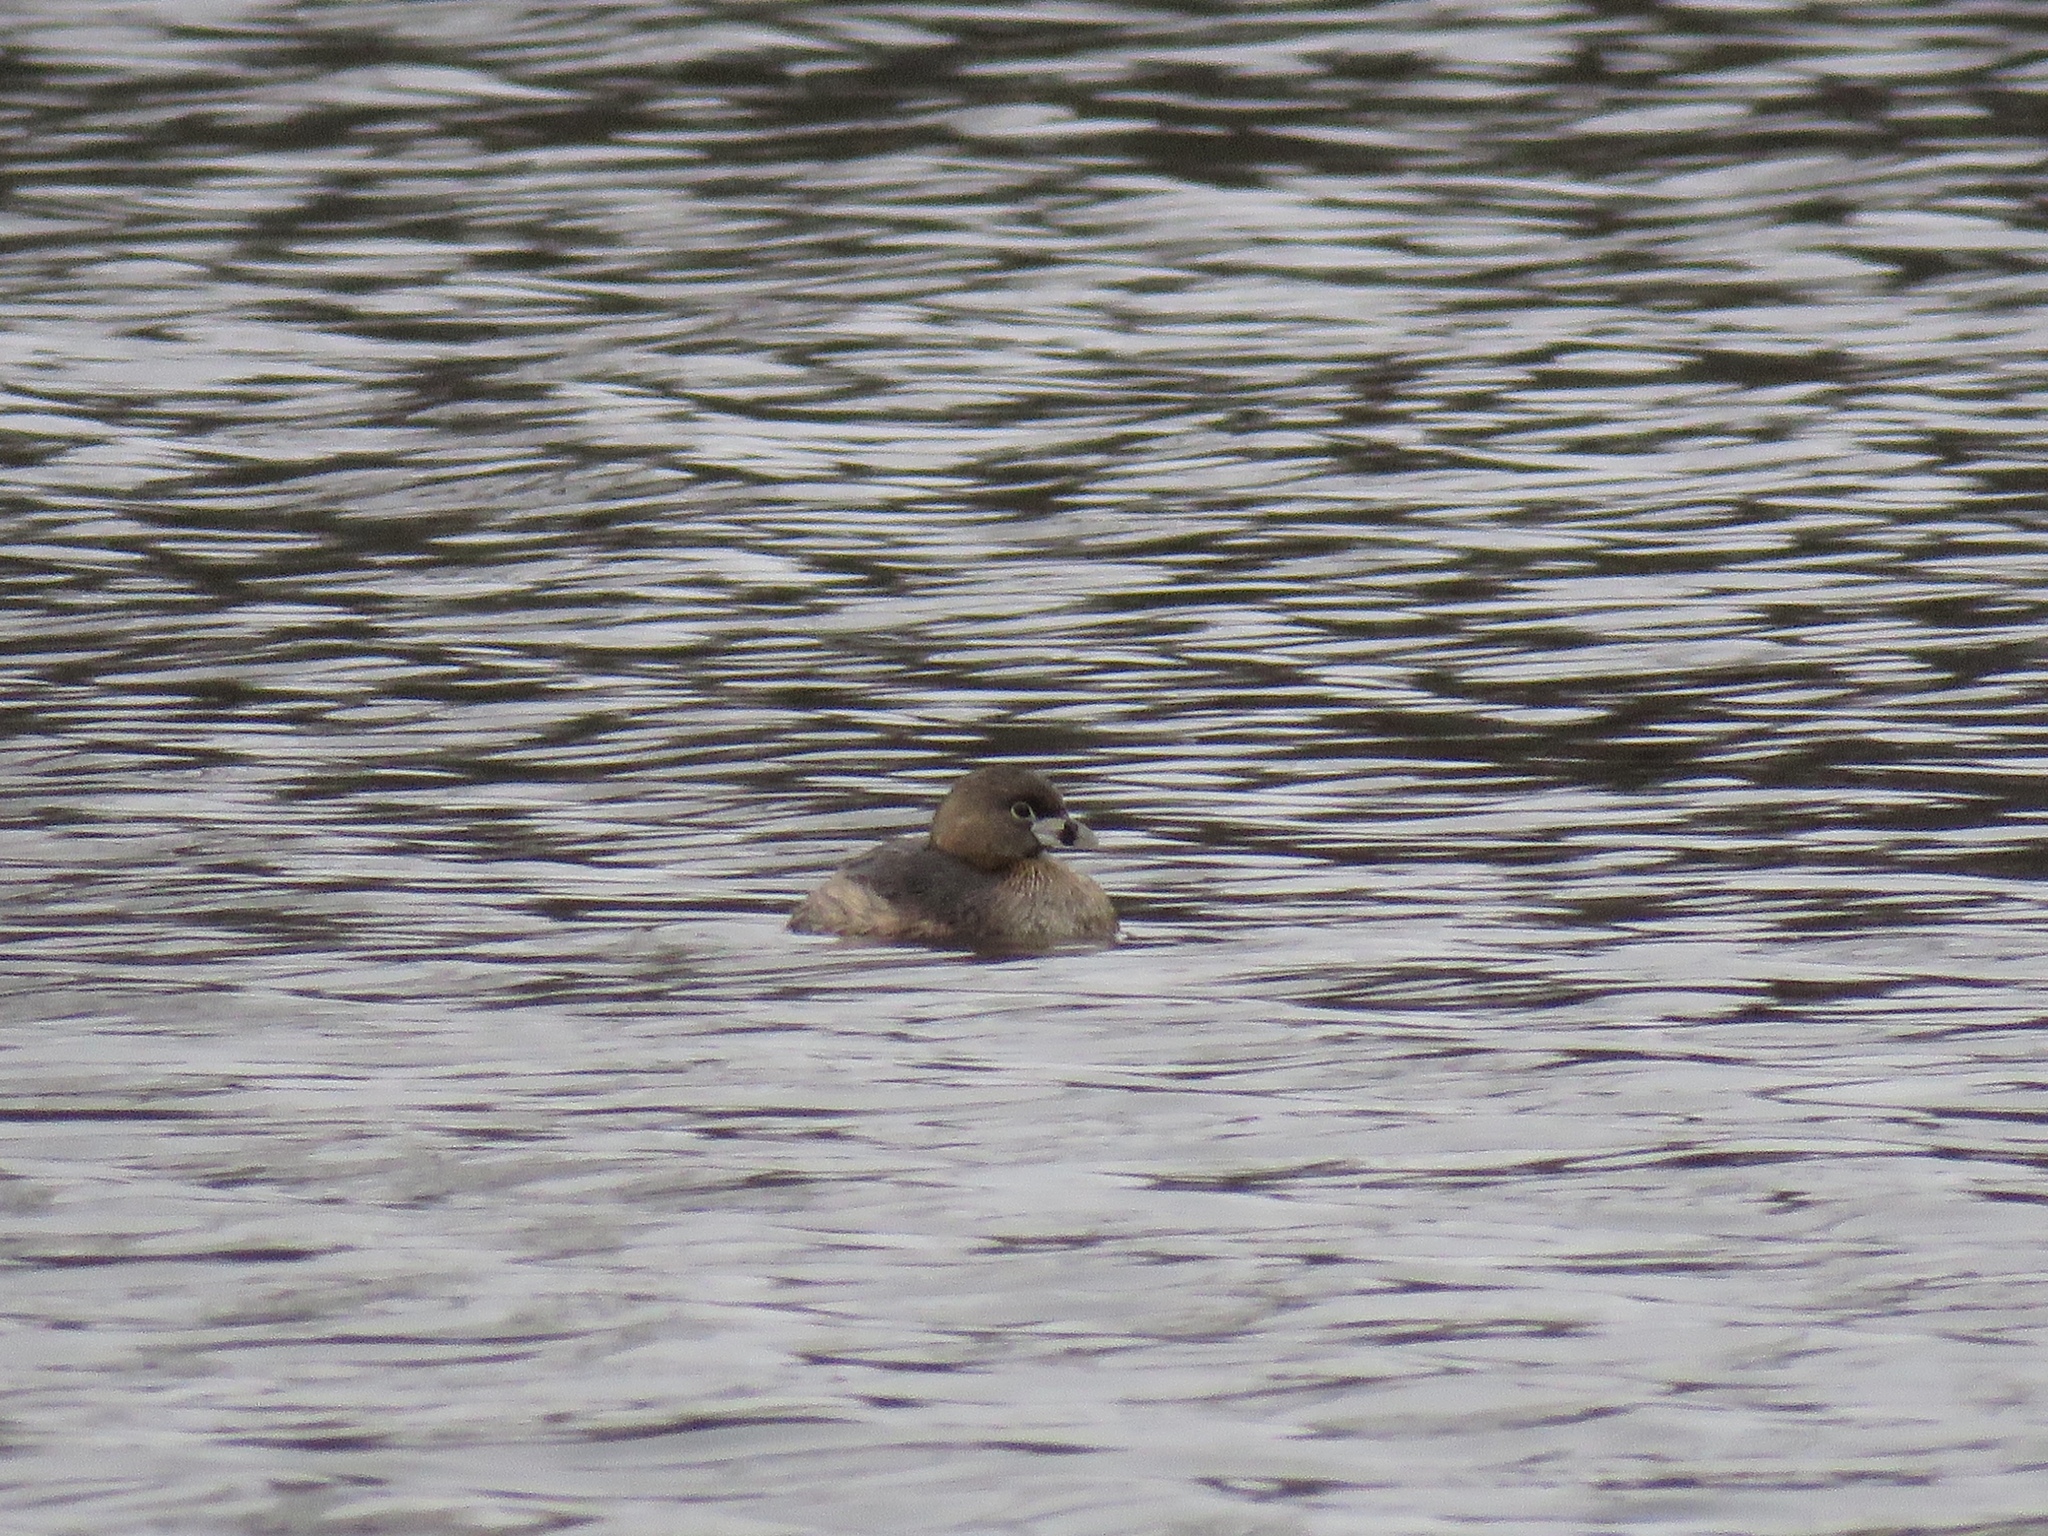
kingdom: Animalia
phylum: Chordata
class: Aves
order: Podicipediformes
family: Podicipedidae
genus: Podilymbus
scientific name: Podilymbus podiceps
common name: Pied-billed grebe
